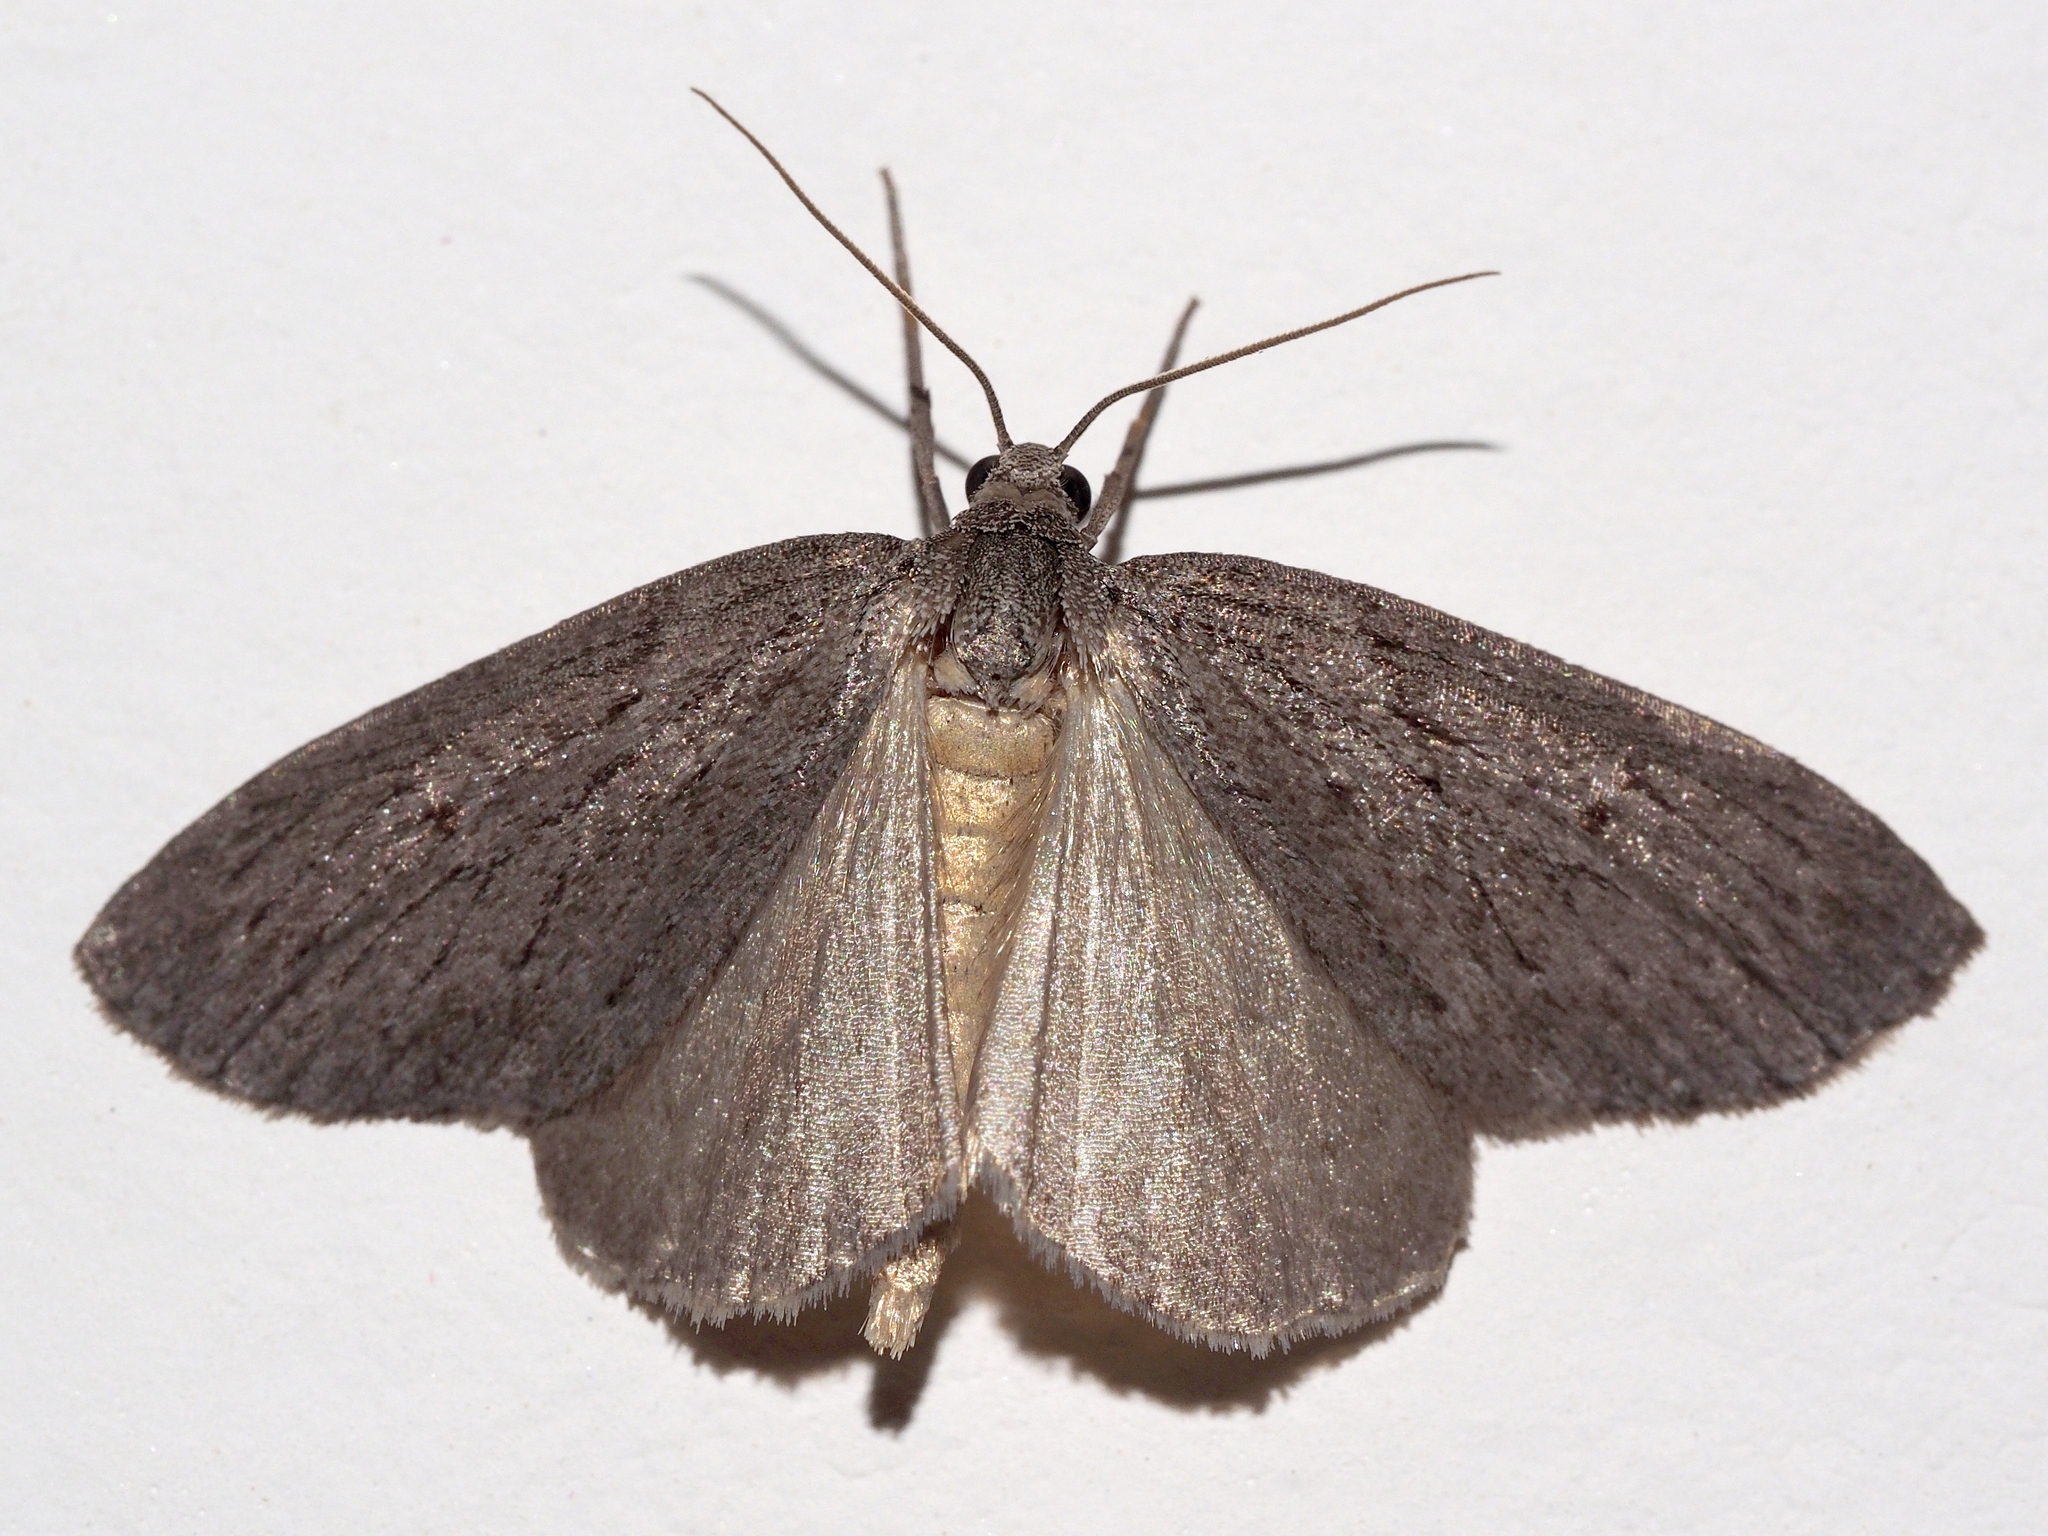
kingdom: Animalia
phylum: Arthropoda
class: Insecta
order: Lepidoptera
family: Geometridae
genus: Pachycnemia
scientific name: Pachycnemia hippocastanaria
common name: Horse chestnut
